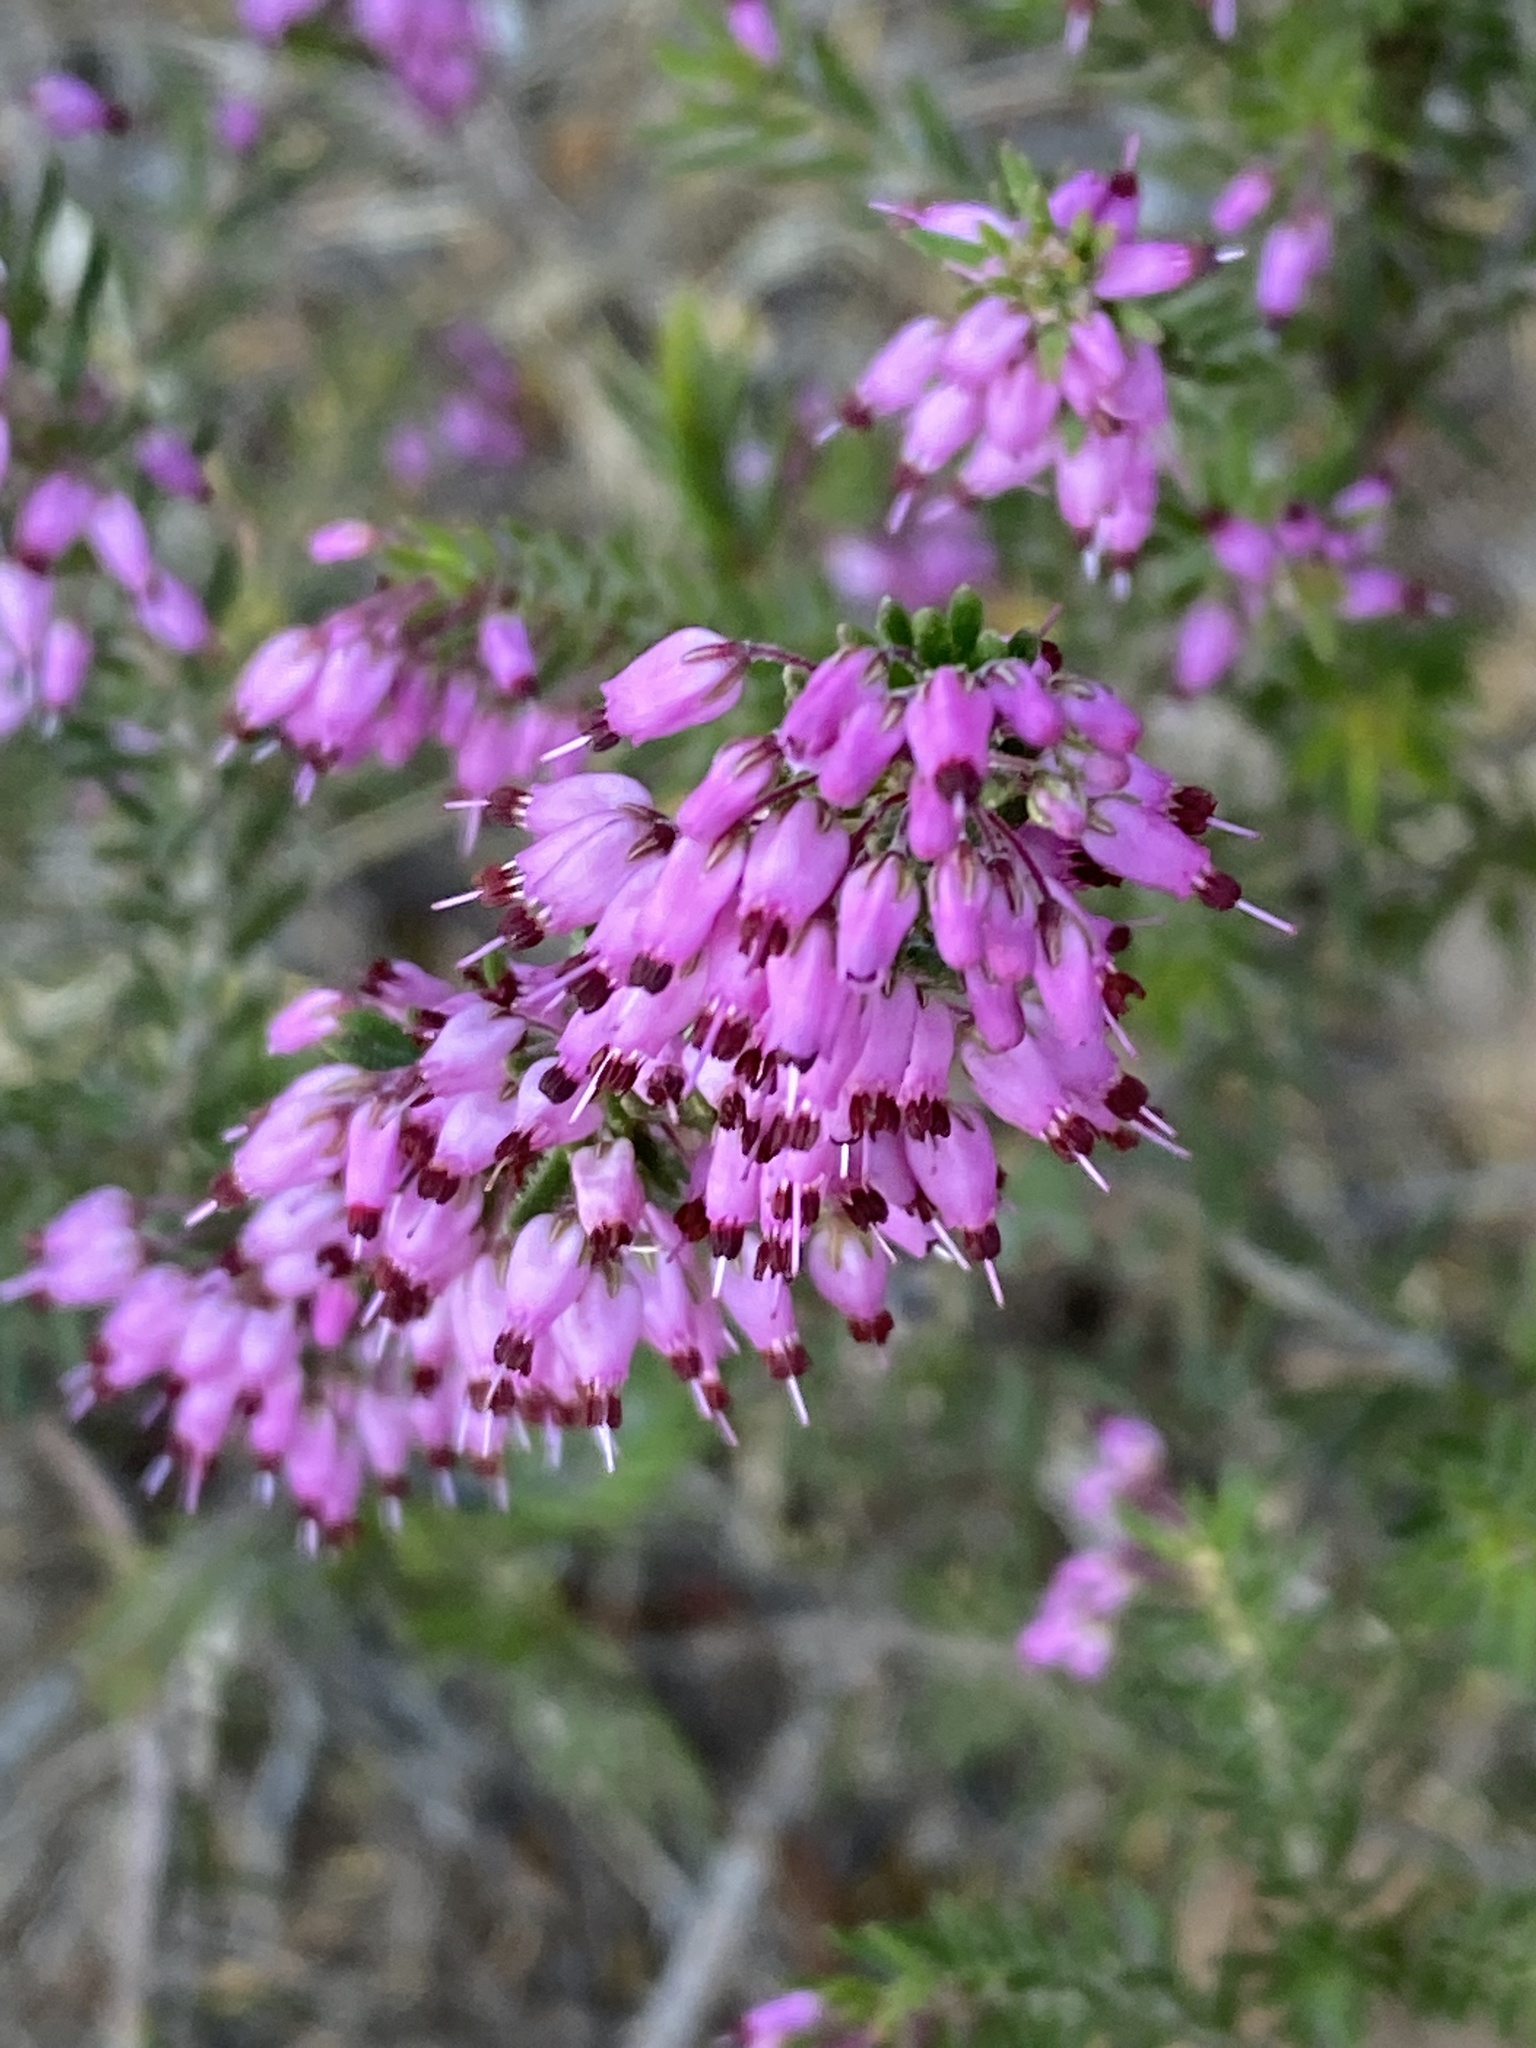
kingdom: Plantae
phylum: Tracheophyta
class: Magnoliopsida
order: Ericales
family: Ericaceae
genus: Erica
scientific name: Erica nudiflora
